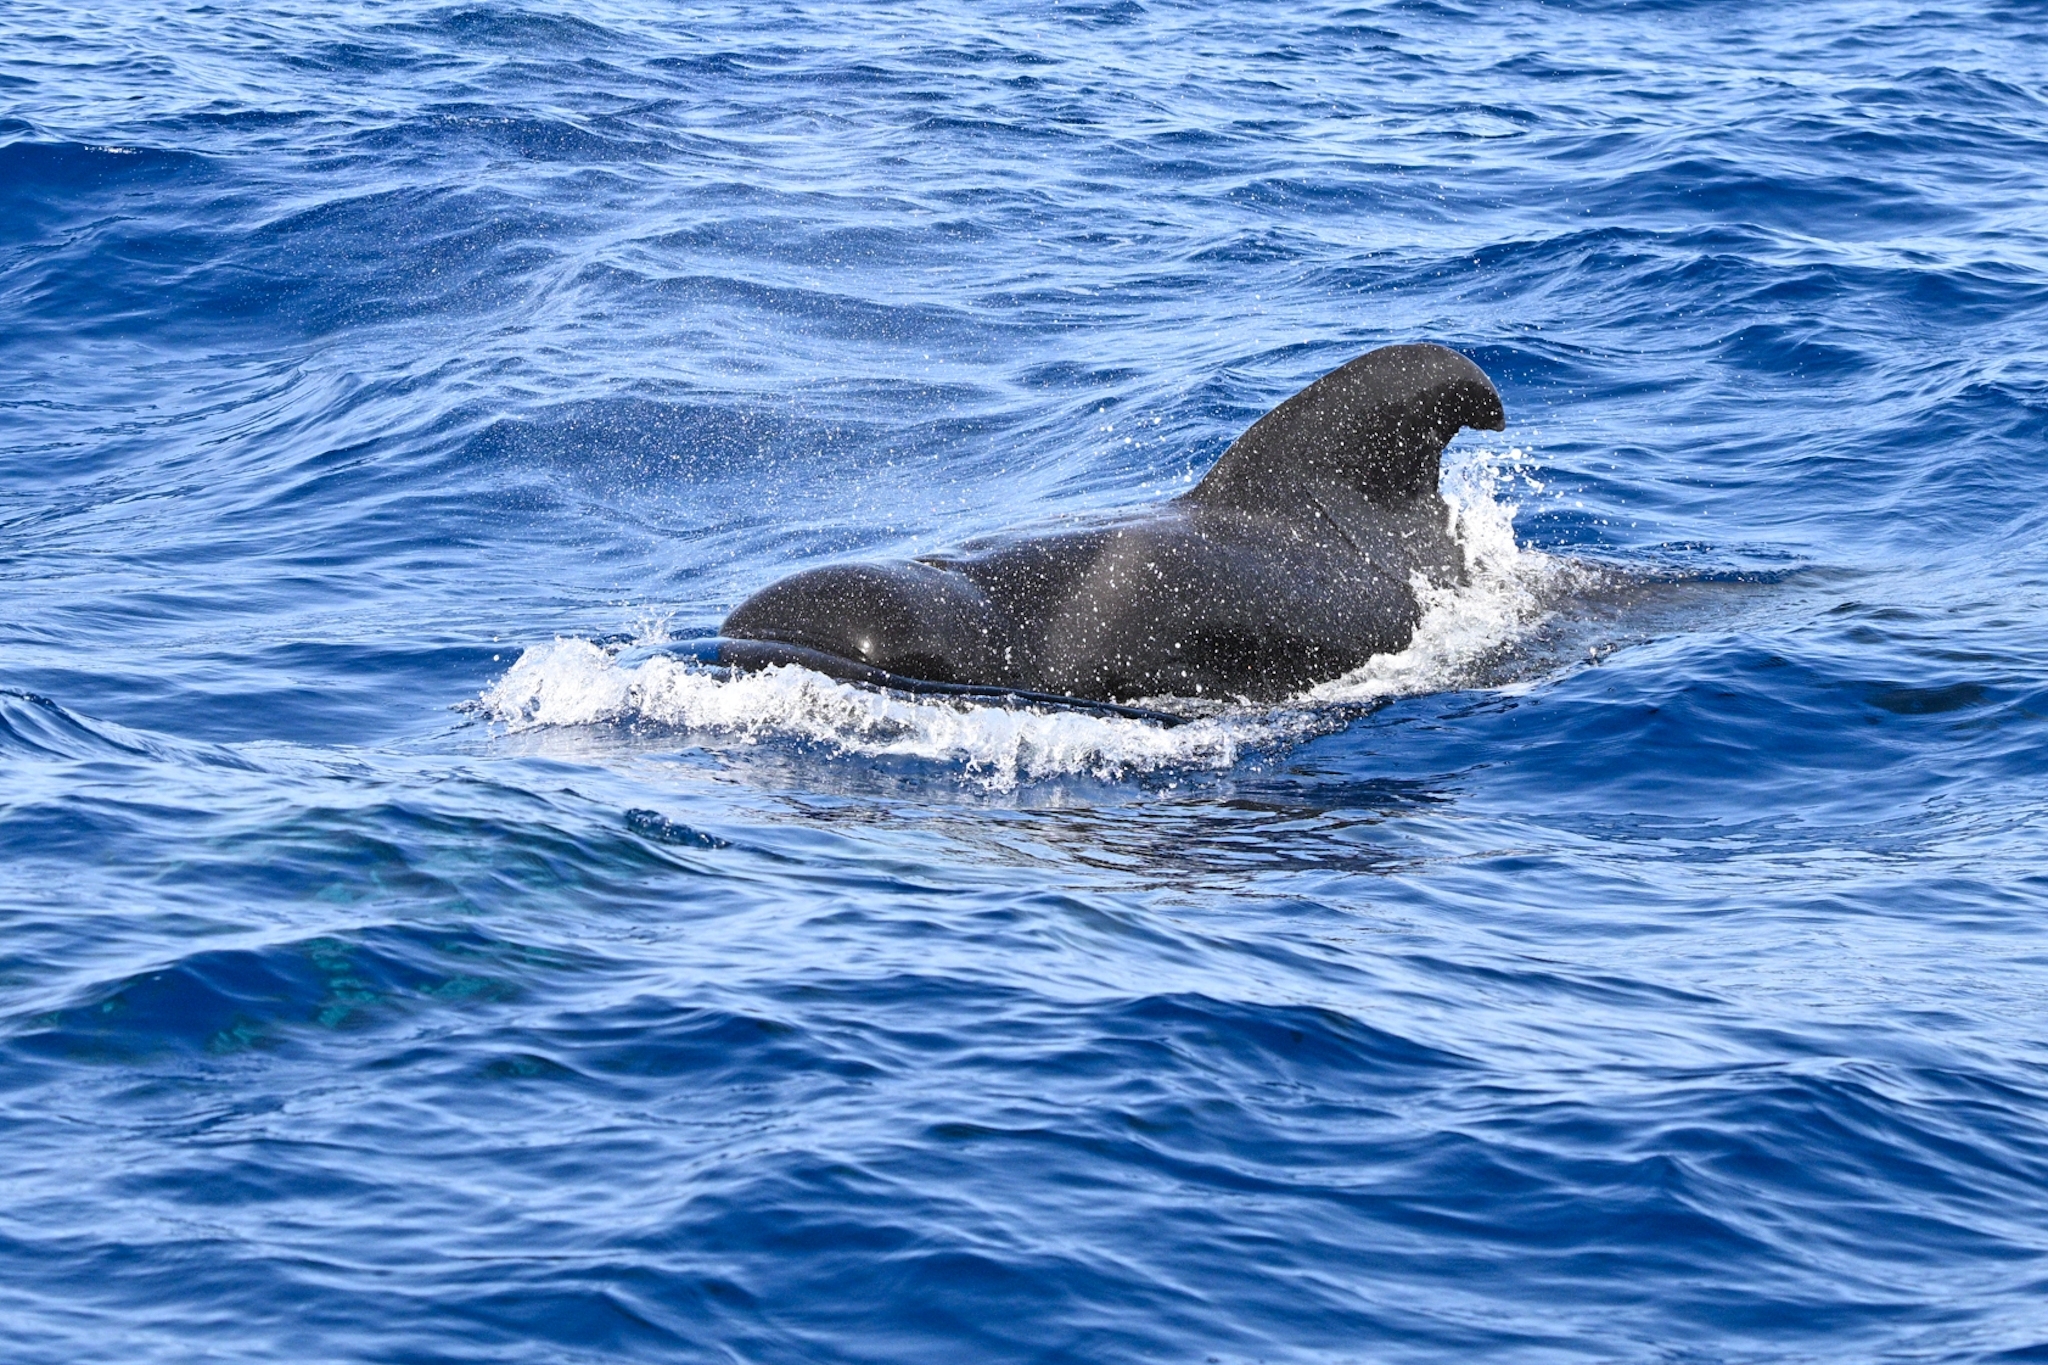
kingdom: Animalia
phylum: Chordata
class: Mammalia
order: Cetacea
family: Delphinidae
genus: Globicephala
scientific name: Globicephala macrorhynchus
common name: Short-finned pilot whale
